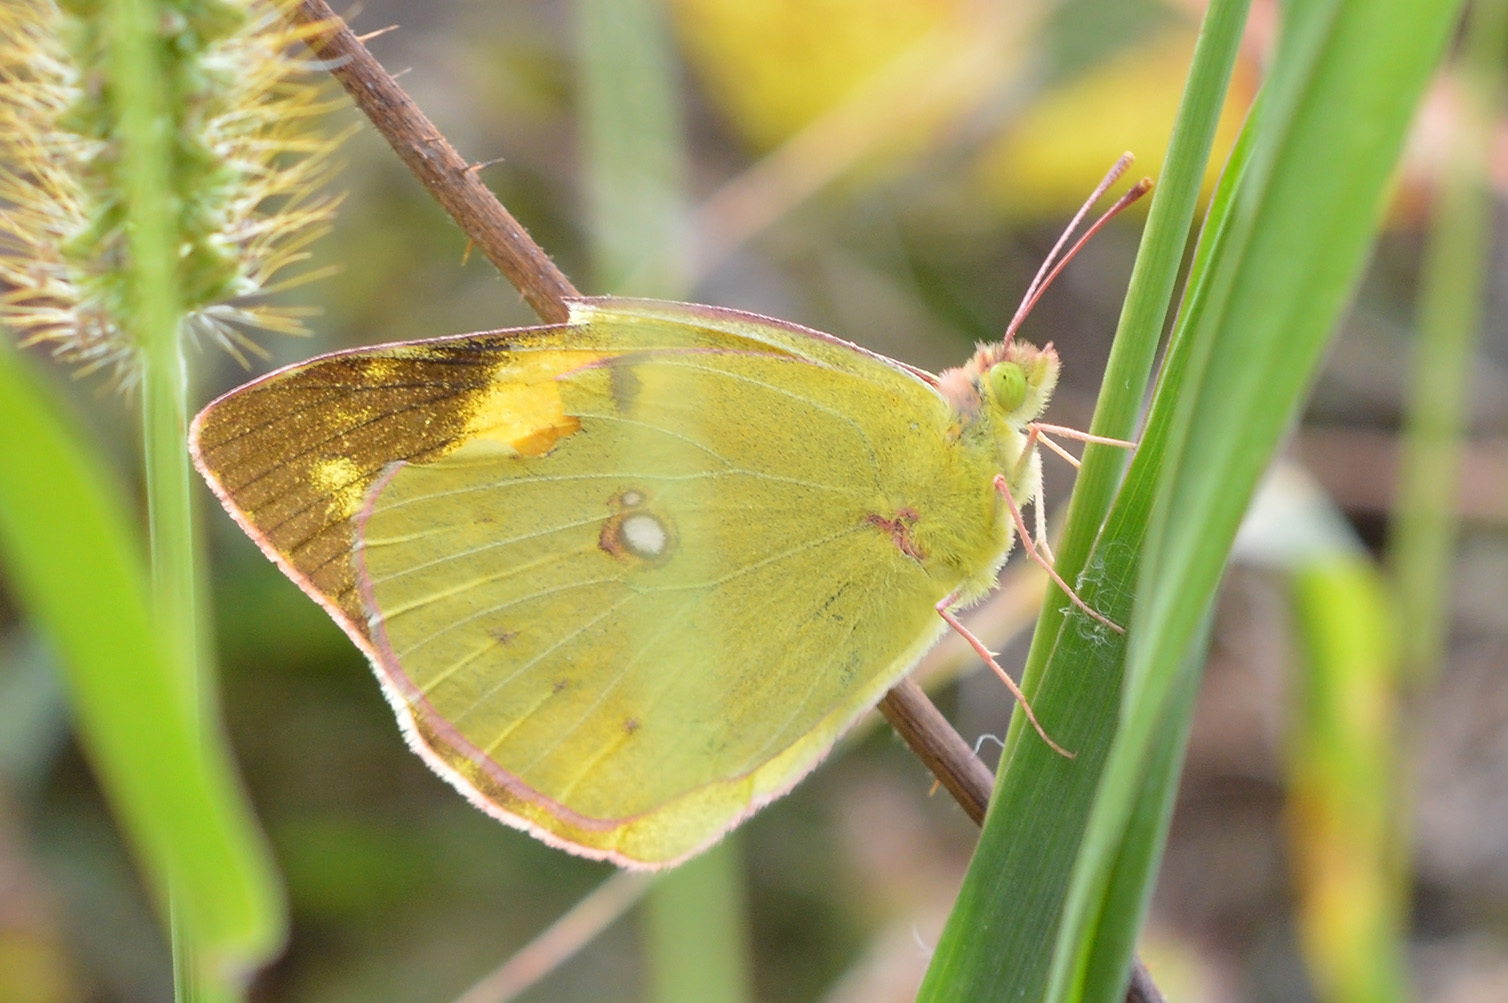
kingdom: Animalia
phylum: Arthropoda
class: Insecta
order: Lepidoptera
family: Pieridae
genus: Colias
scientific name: Colias croceus
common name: Clouded yellow
